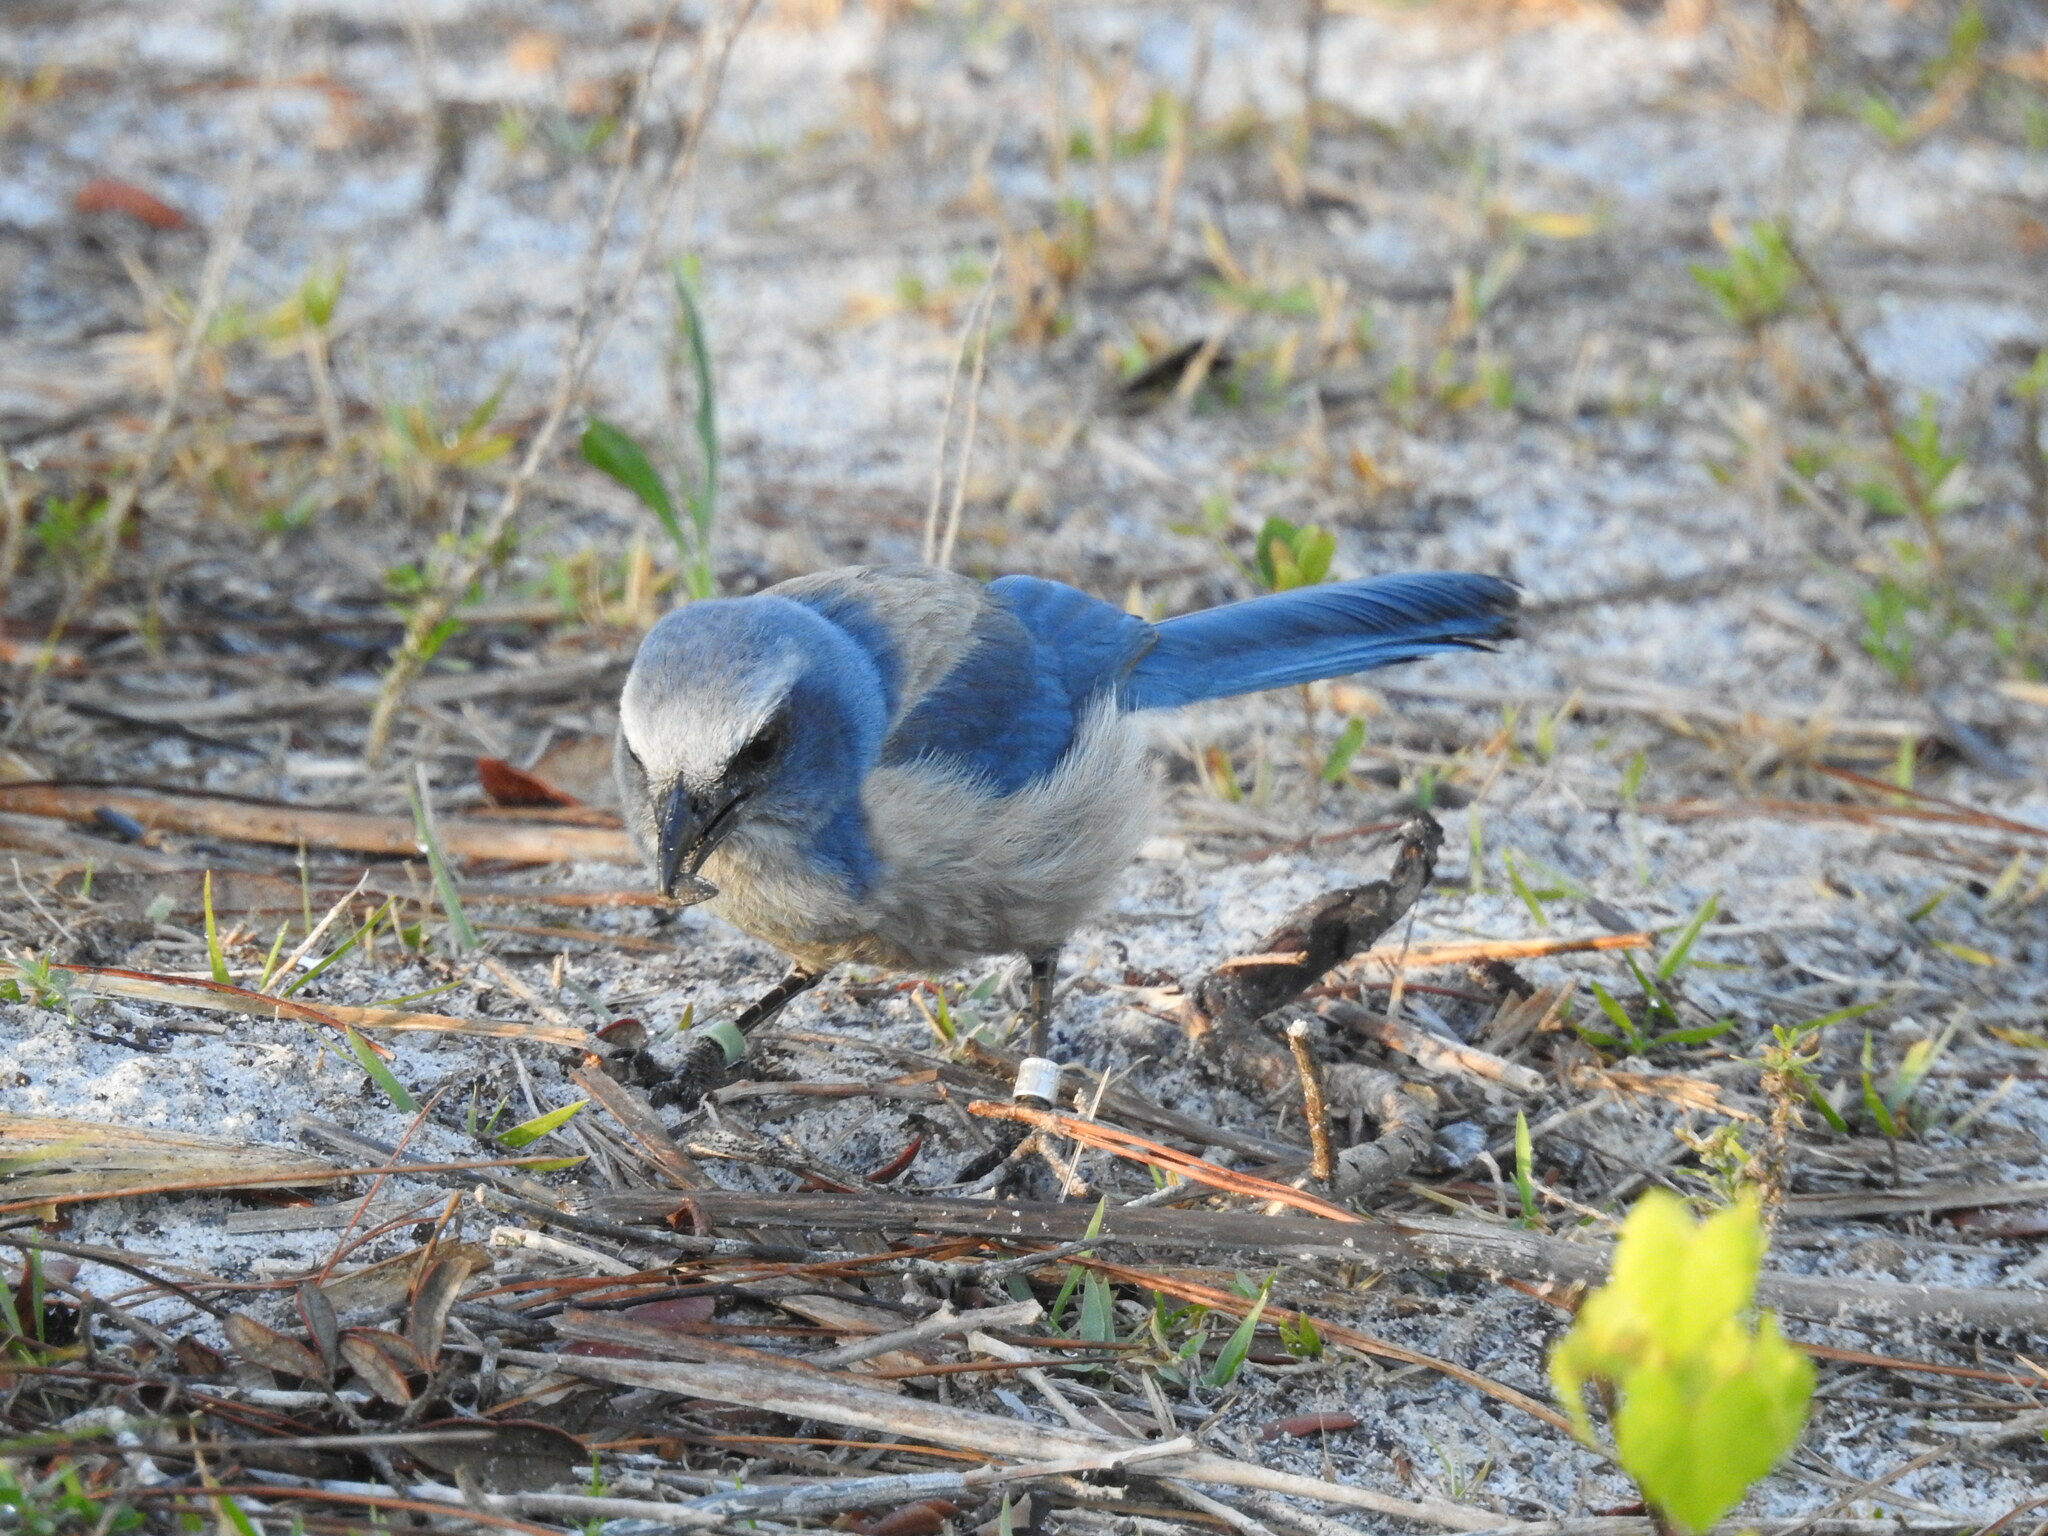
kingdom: Animalia
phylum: Chordata
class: Aves
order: Passeriformes
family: Corvidae
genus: Aphelocoma
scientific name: Aphelocoma coerulescens
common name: Florida scrub jay
